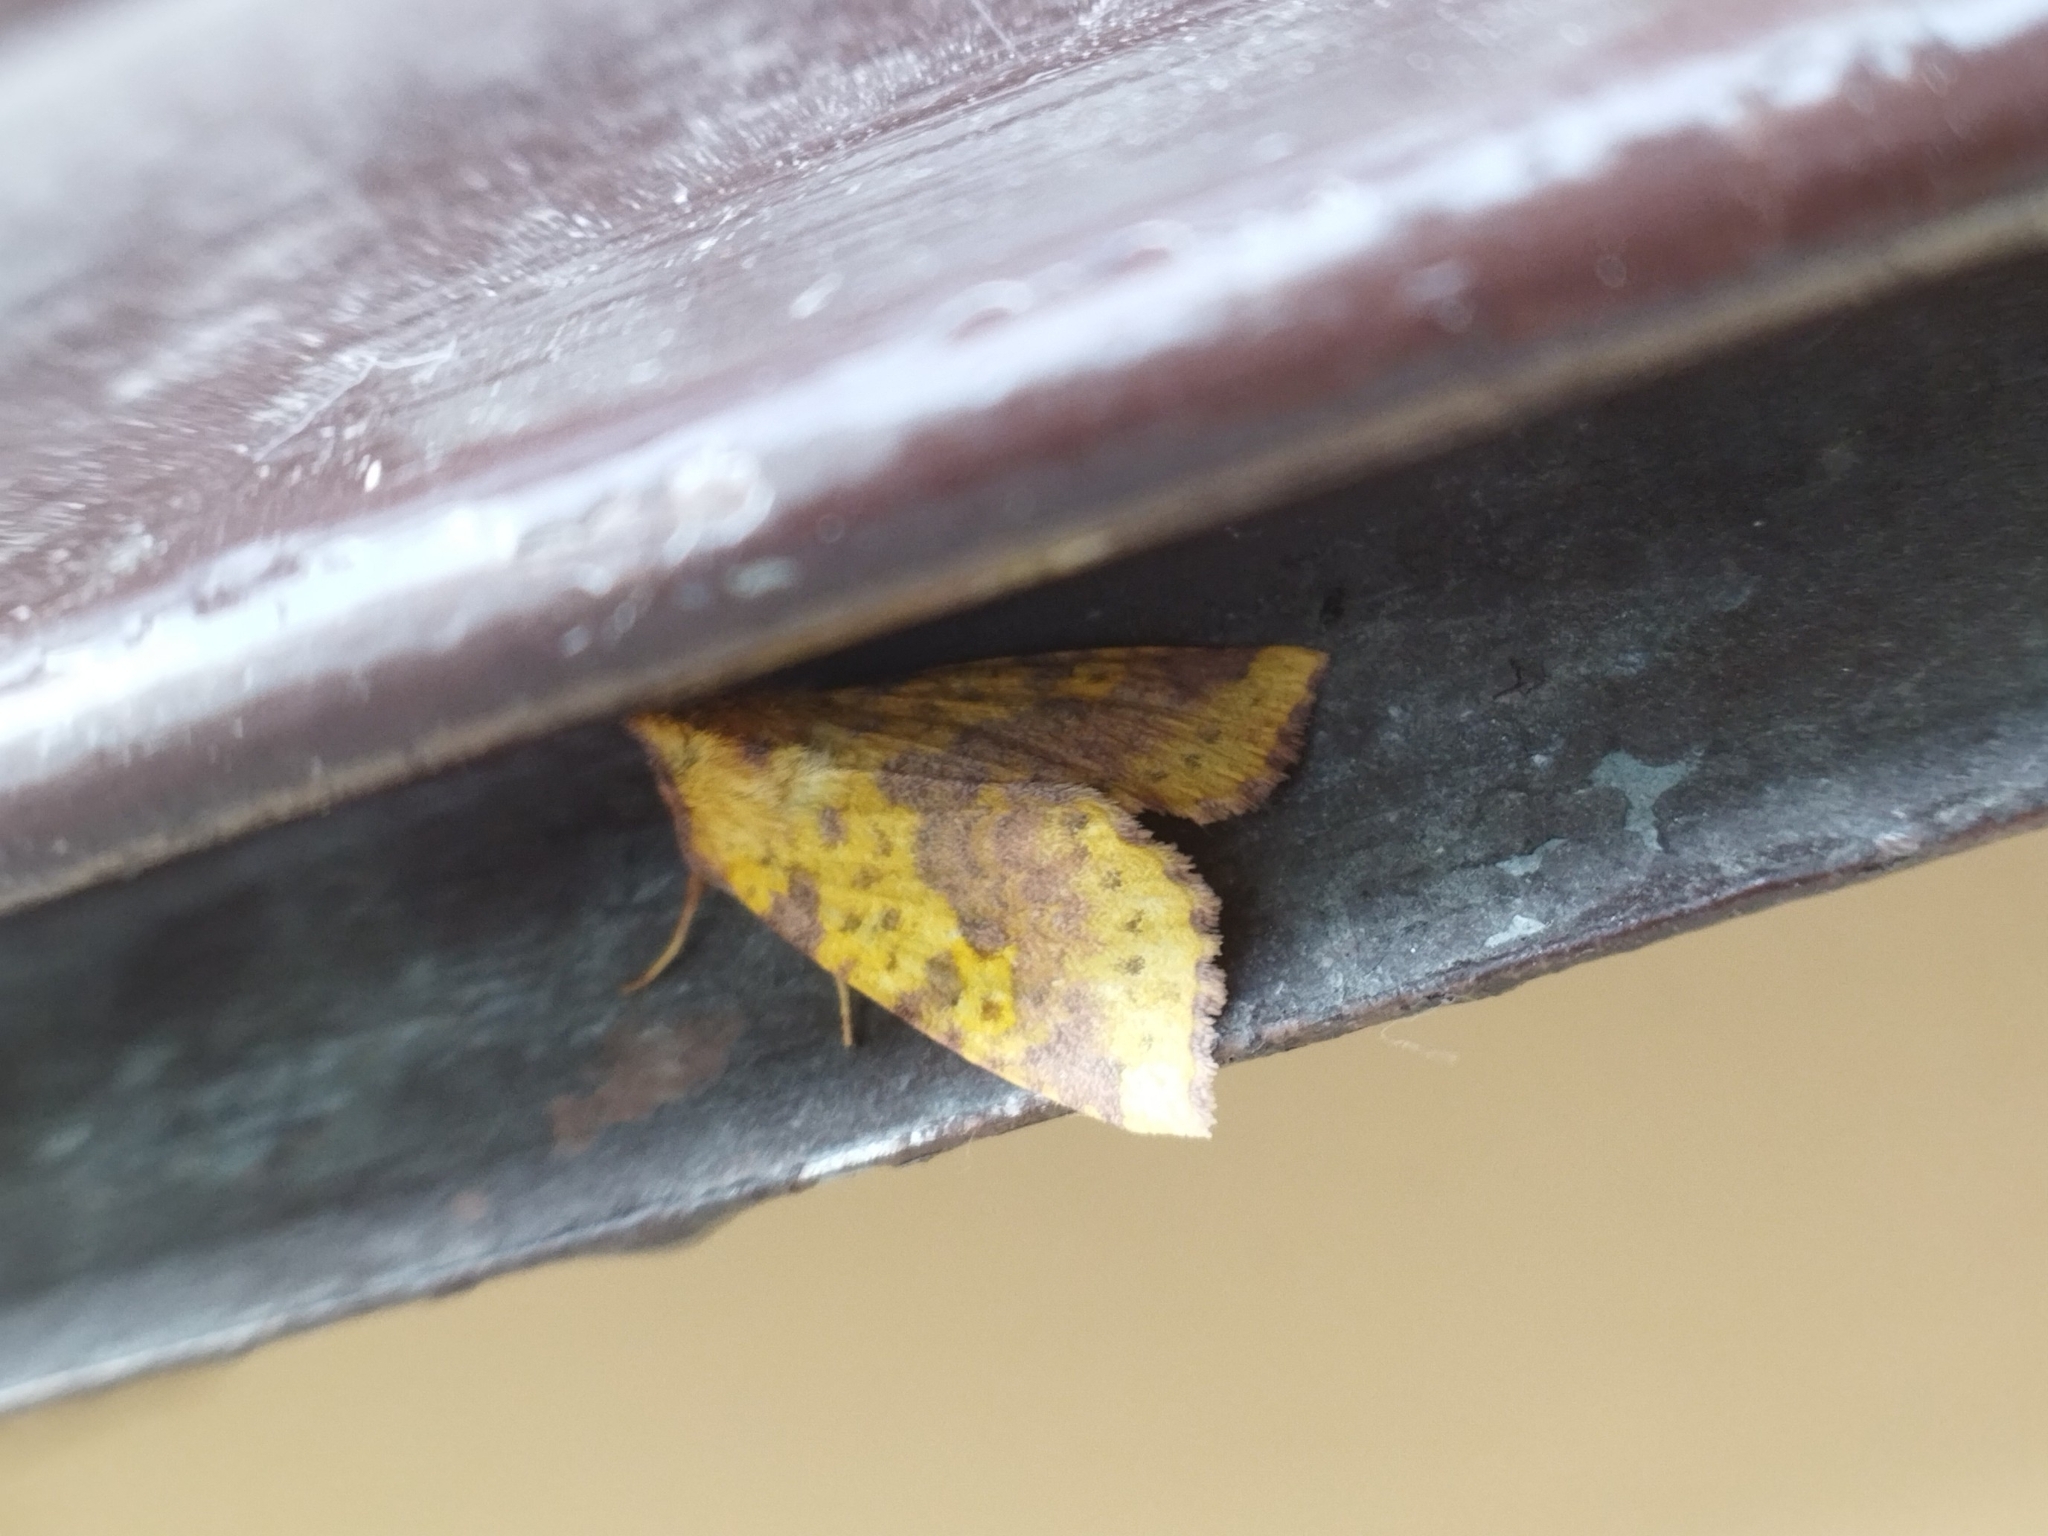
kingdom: Animalia
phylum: Arthropoda
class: Insecta
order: Lepidoptera
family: Noctuidae
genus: Xanthia
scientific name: Xanthia togata
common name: Pink-barred sallow
